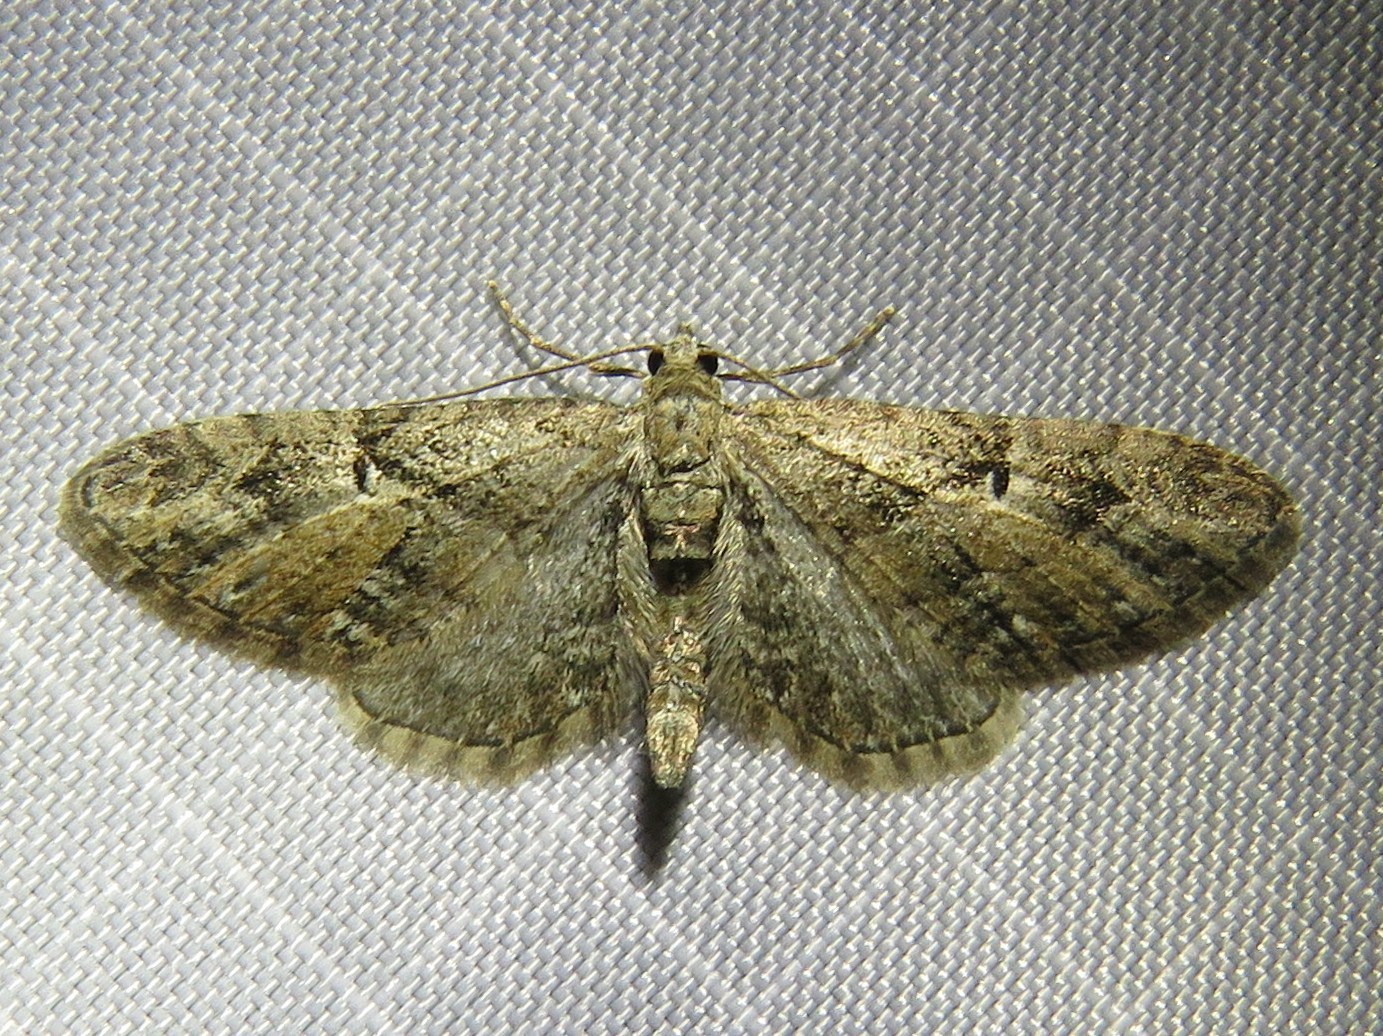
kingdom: Animalia
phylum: Arthropoda
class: Insecta
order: Lepidoptera
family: Geometridae
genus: Eupithecia
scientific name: Eupithecia pusillata
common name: Juniper pug
